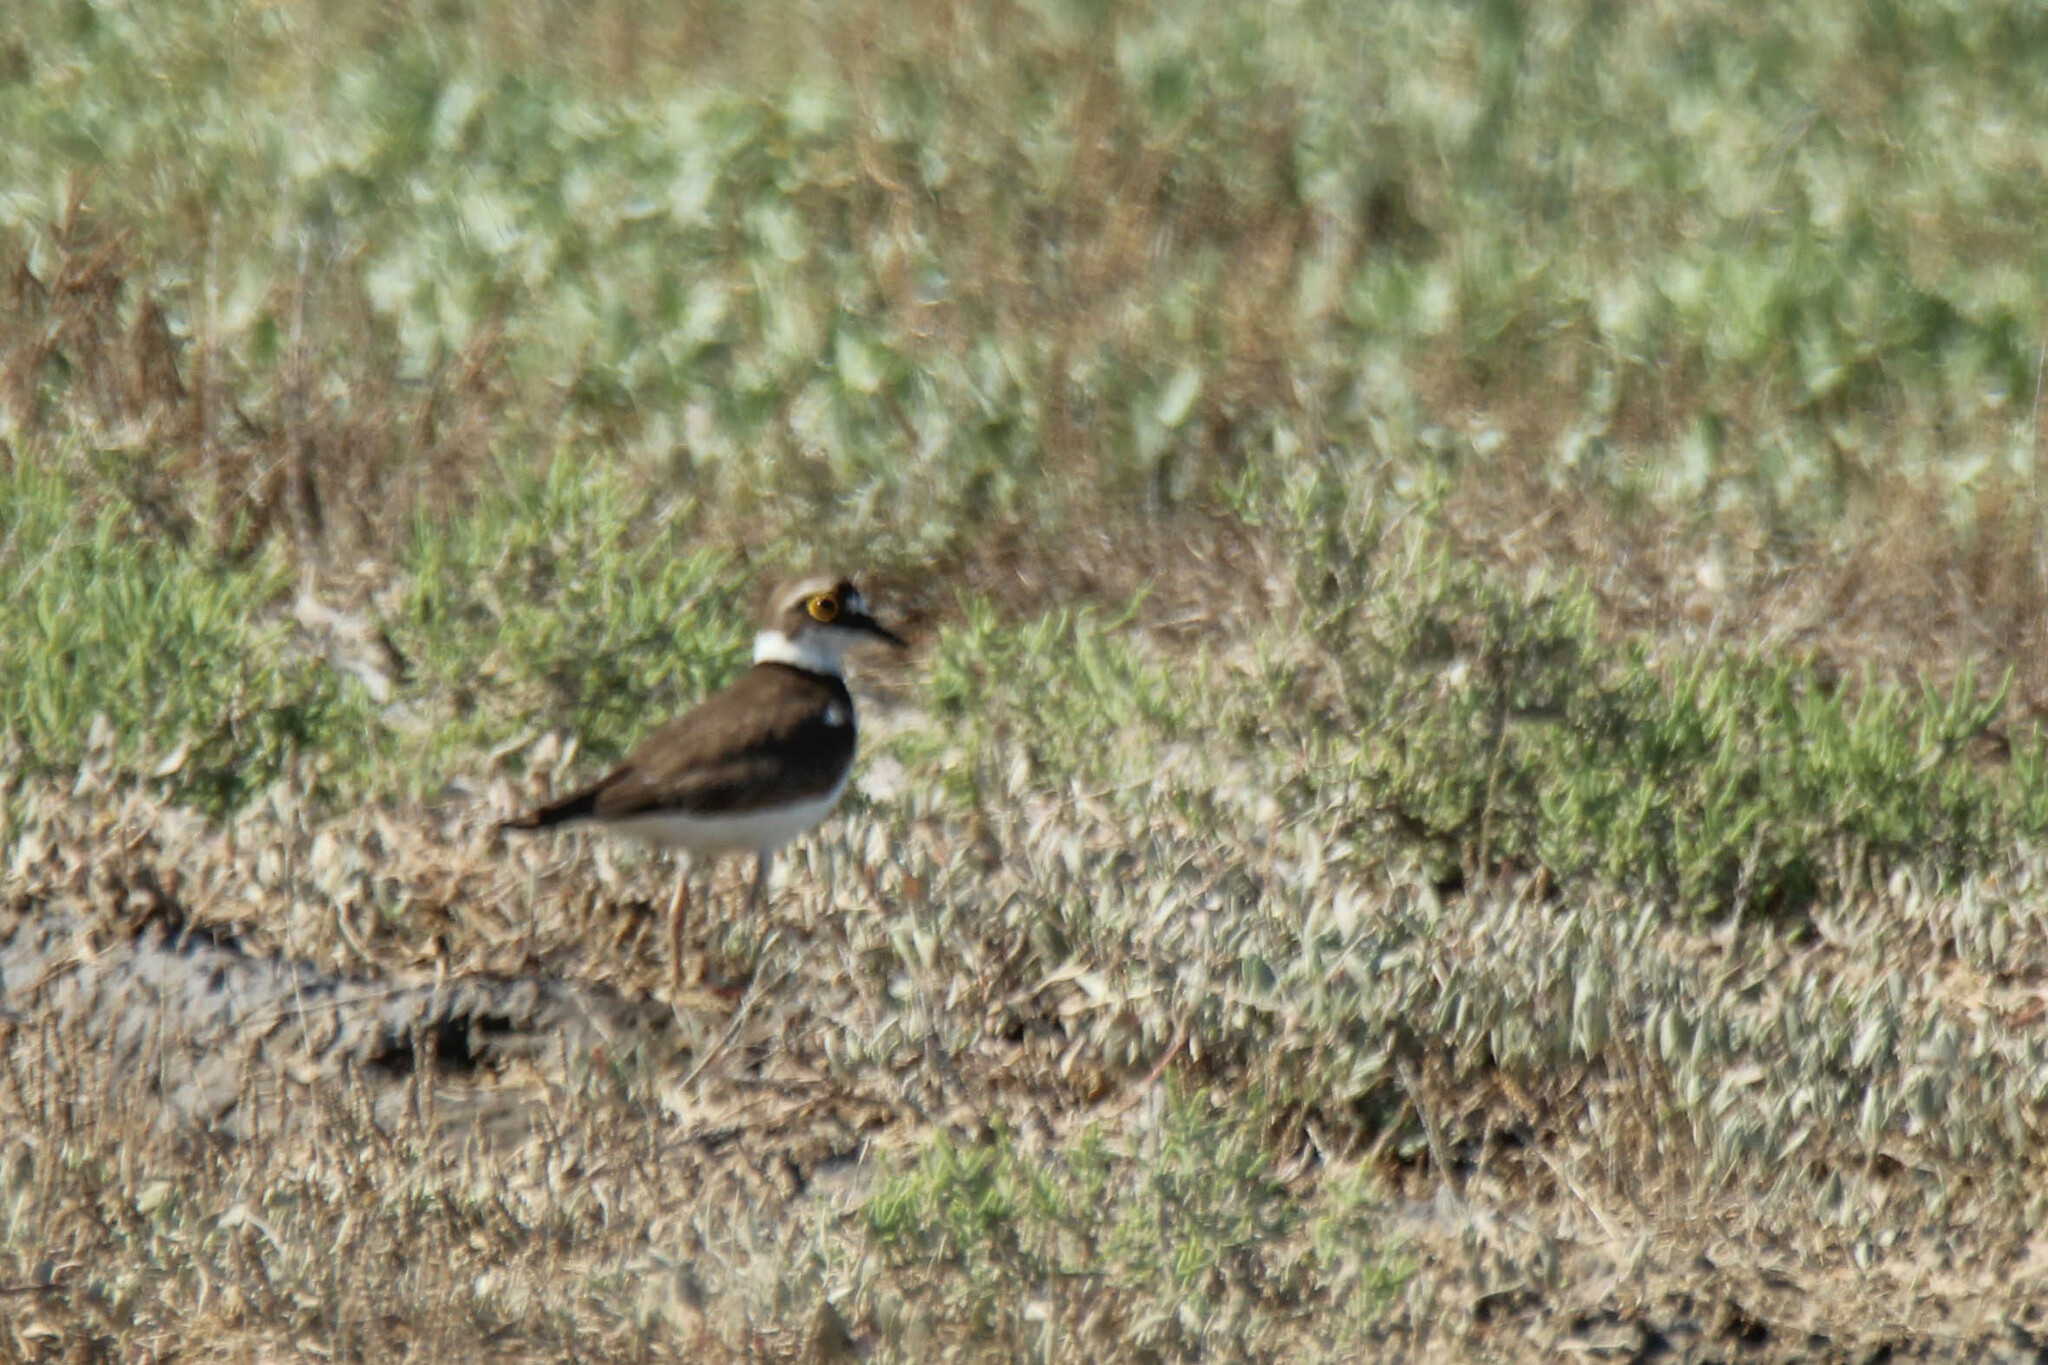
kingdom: Animalia
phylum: Chordata
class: Aves
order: Charadriiformes
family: Charadriidae
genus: Charadrius
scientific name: Charadrius dubius
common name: Little ringed plover
